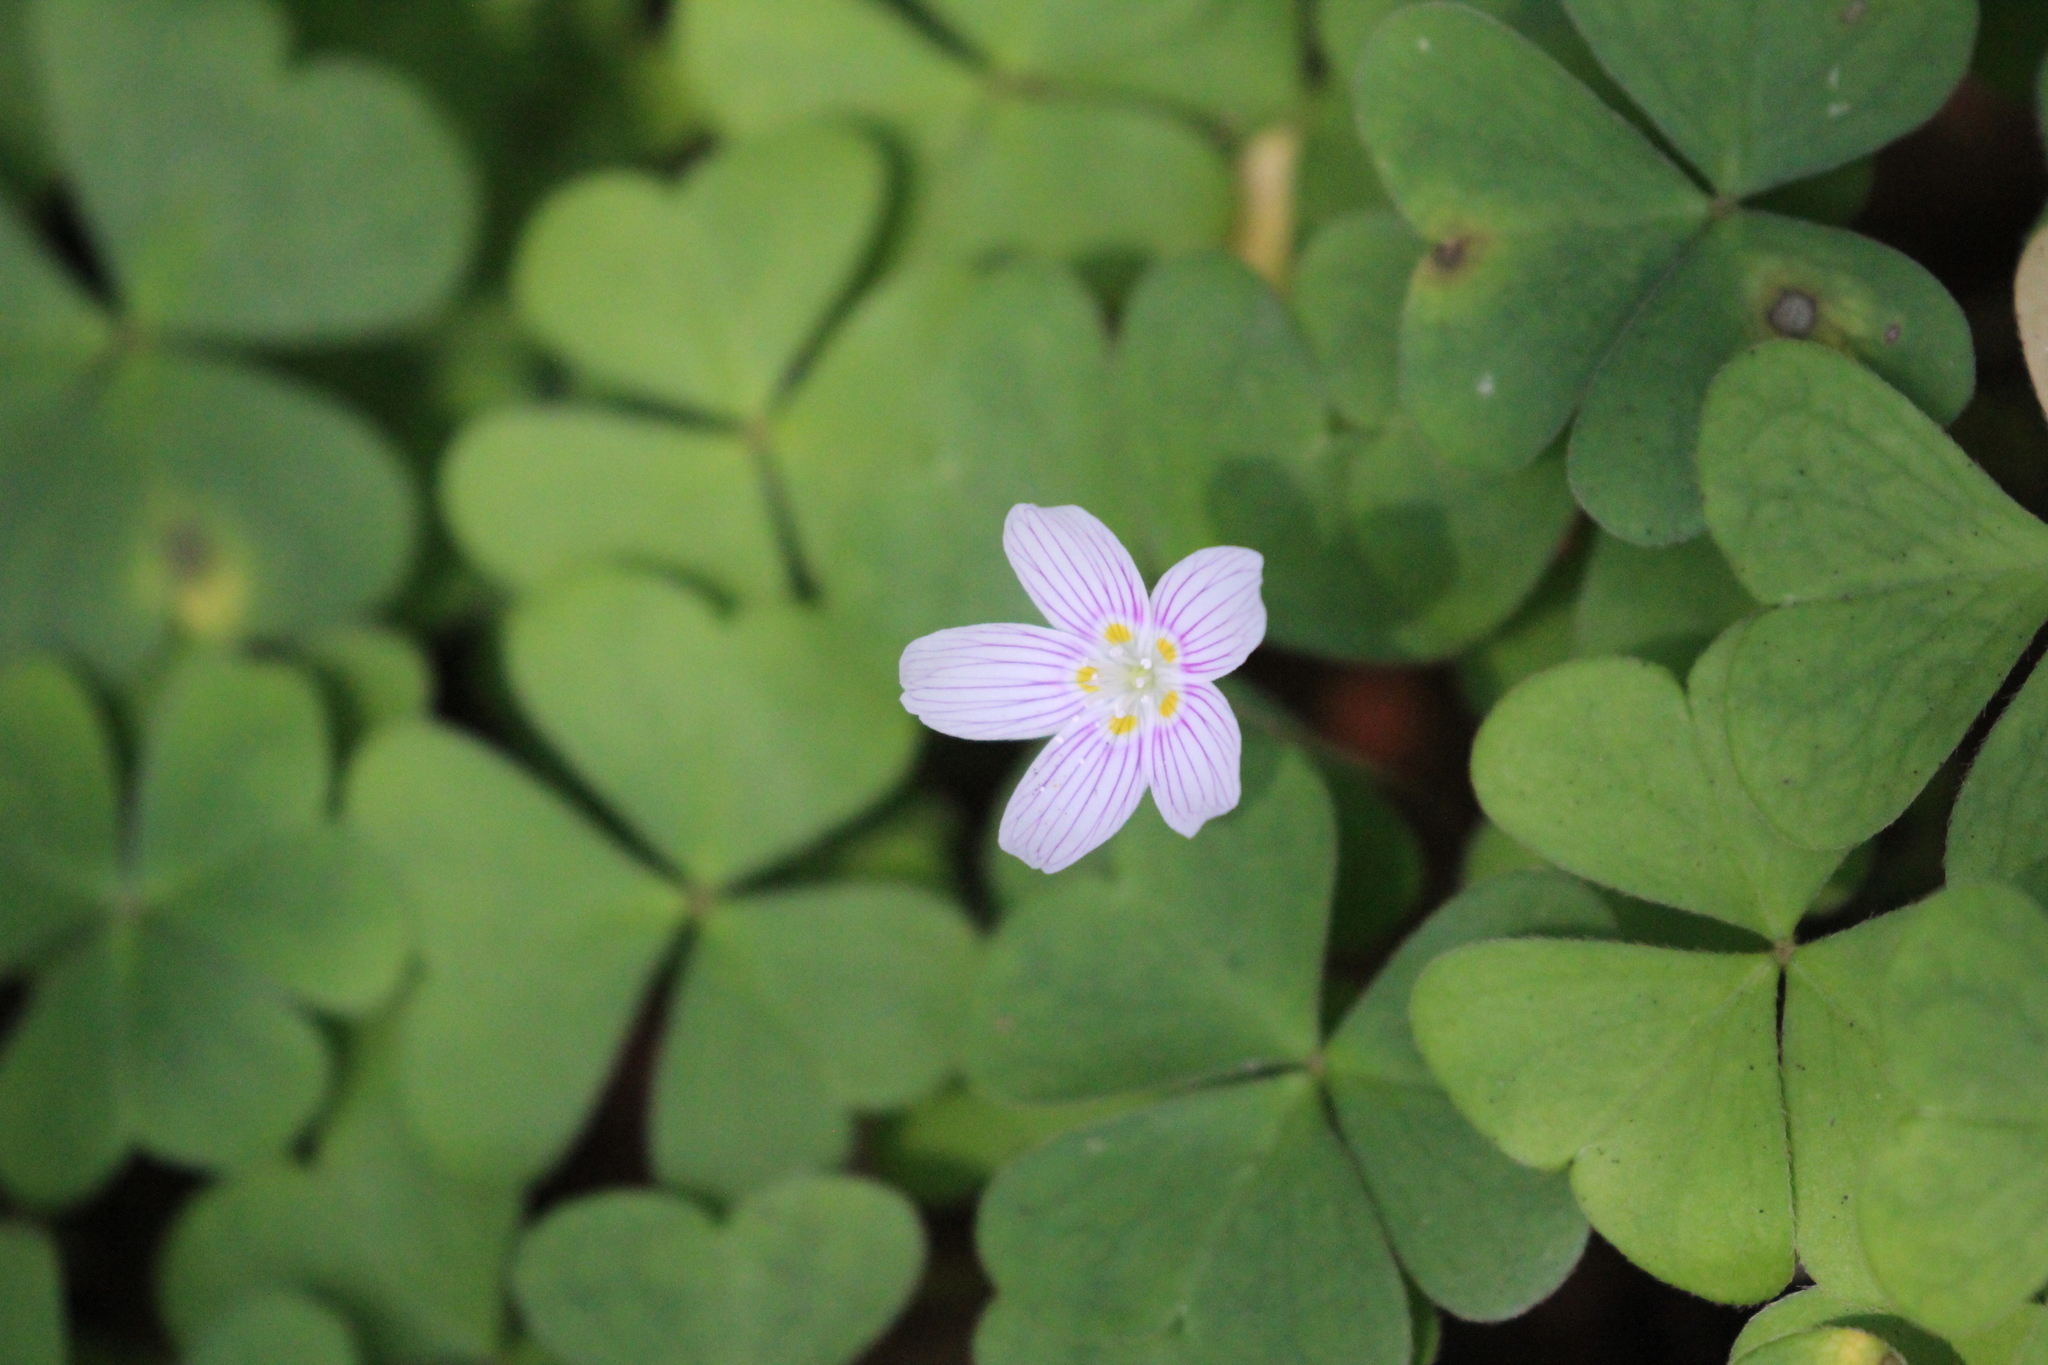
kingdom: Plantae
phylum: Tracheophyta
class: Magnoliopsida
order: Oxalidales
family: Oxalidaceae
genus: Oxalis
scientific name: Oxalis montana
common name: American wood-sorrel
